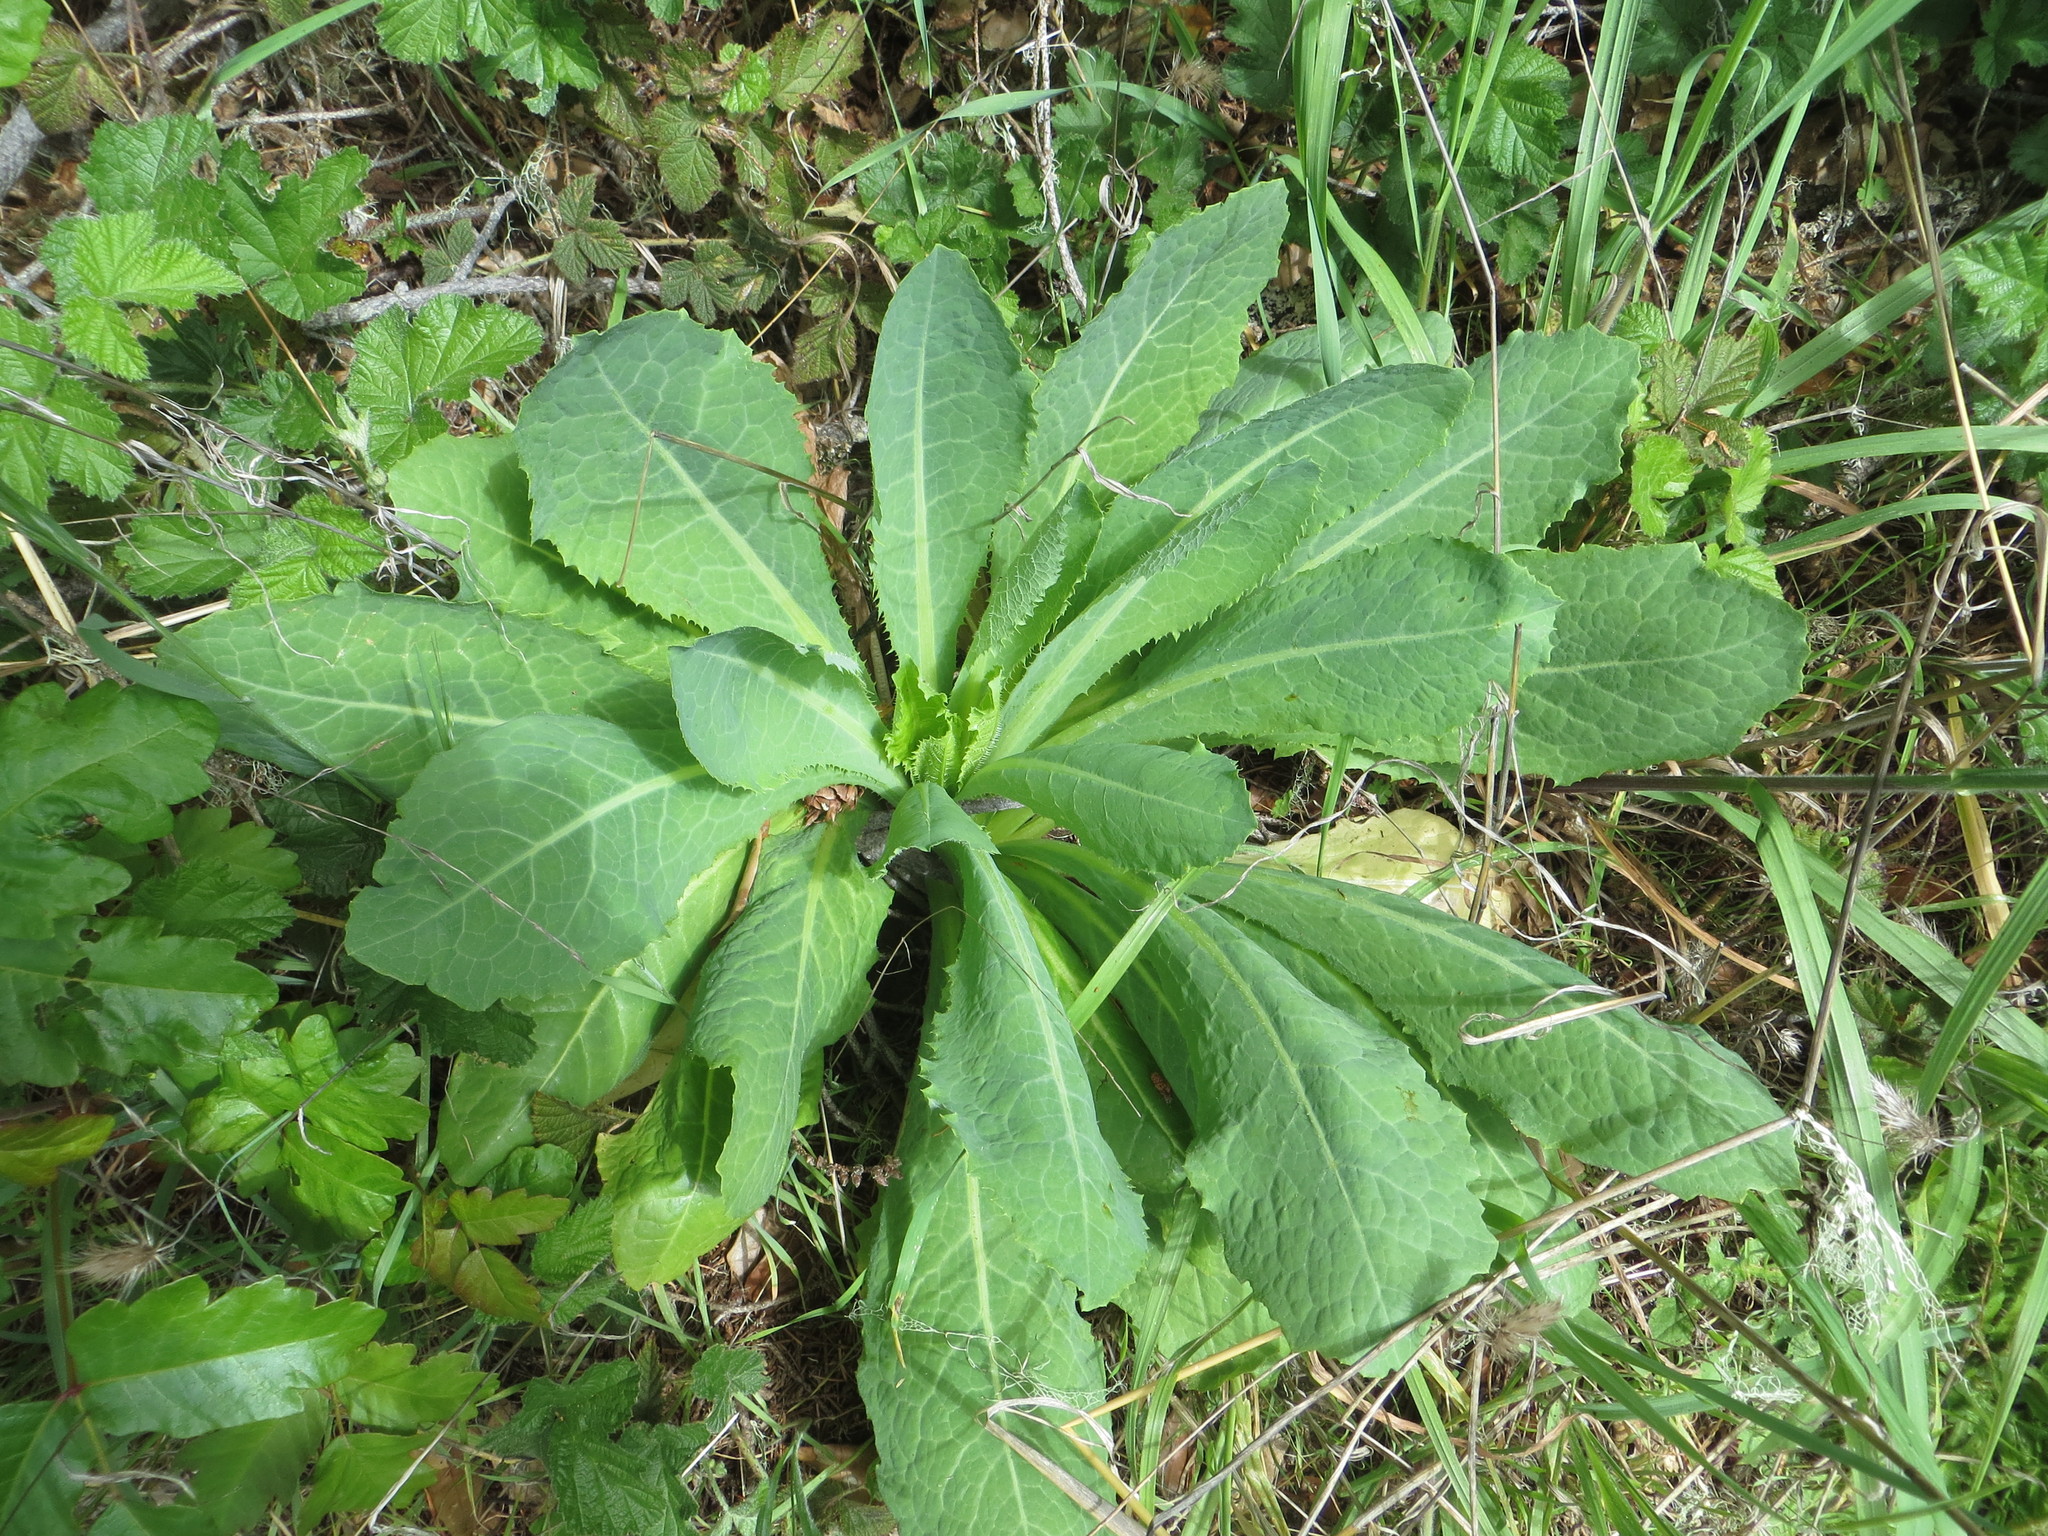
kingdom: Plantae
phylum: Tracheophyta
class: Magnoliopsida
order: Asterales
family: Asteraceae
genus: Lactuca
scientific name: Lactuca virosa
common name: Great lettuce
